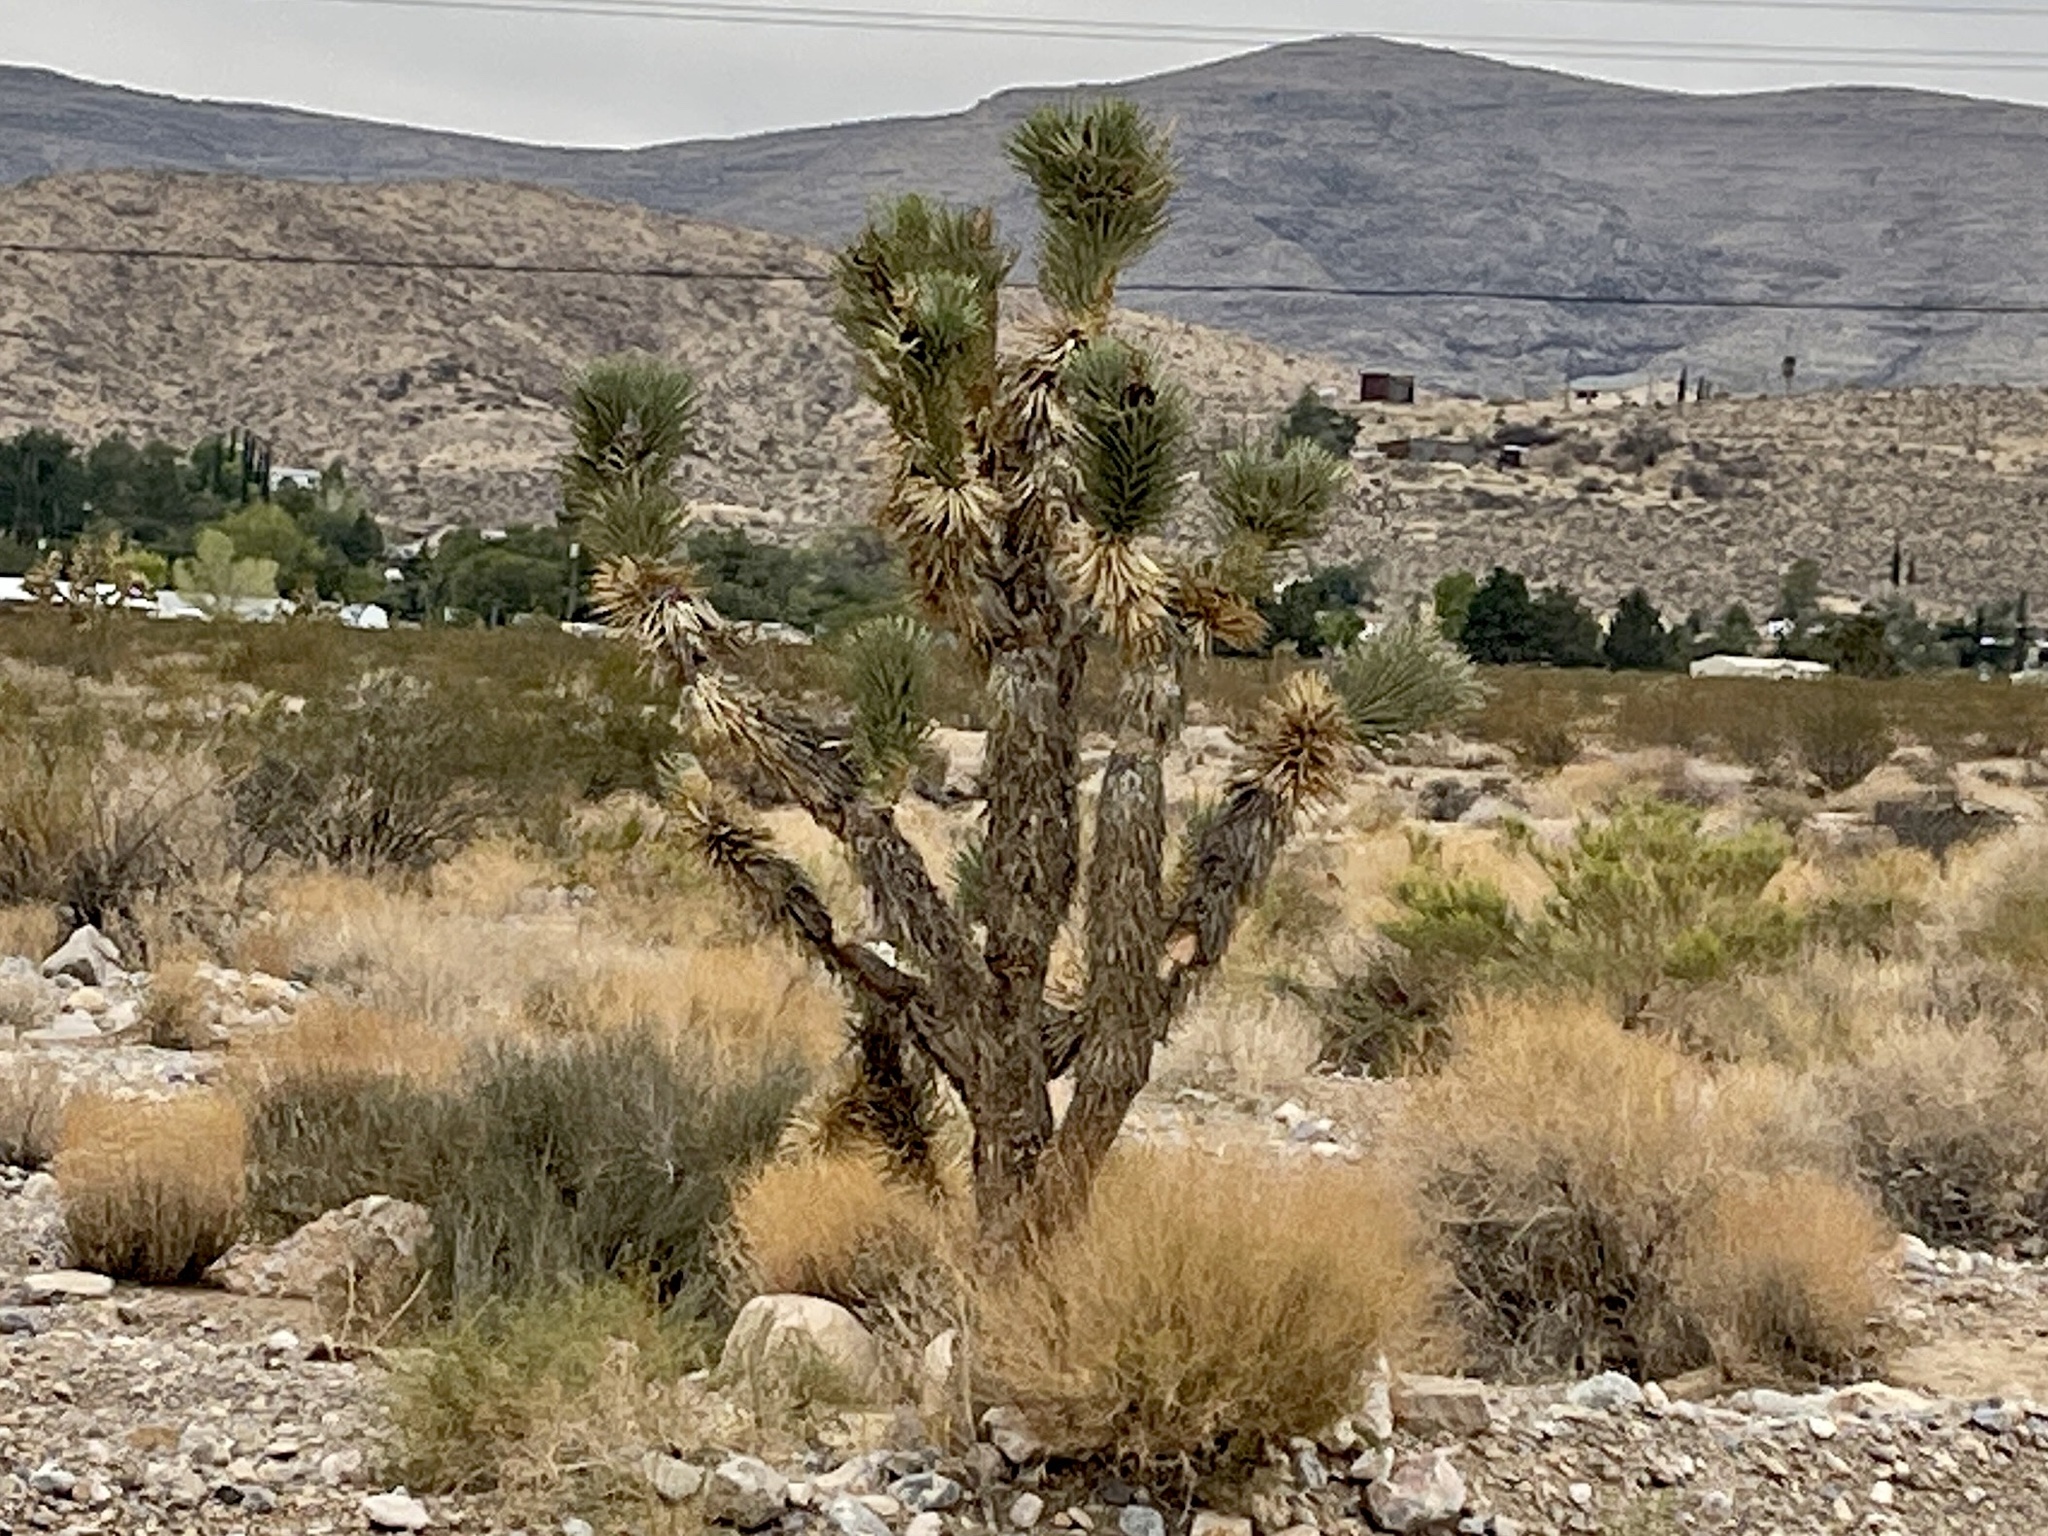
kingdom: Plantae
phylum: Tracheophyta
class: Liliopsida
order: Asparagales
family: Asparagaceae
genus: Yucca
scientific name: Yucca brevifolia
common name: Joshua tree
